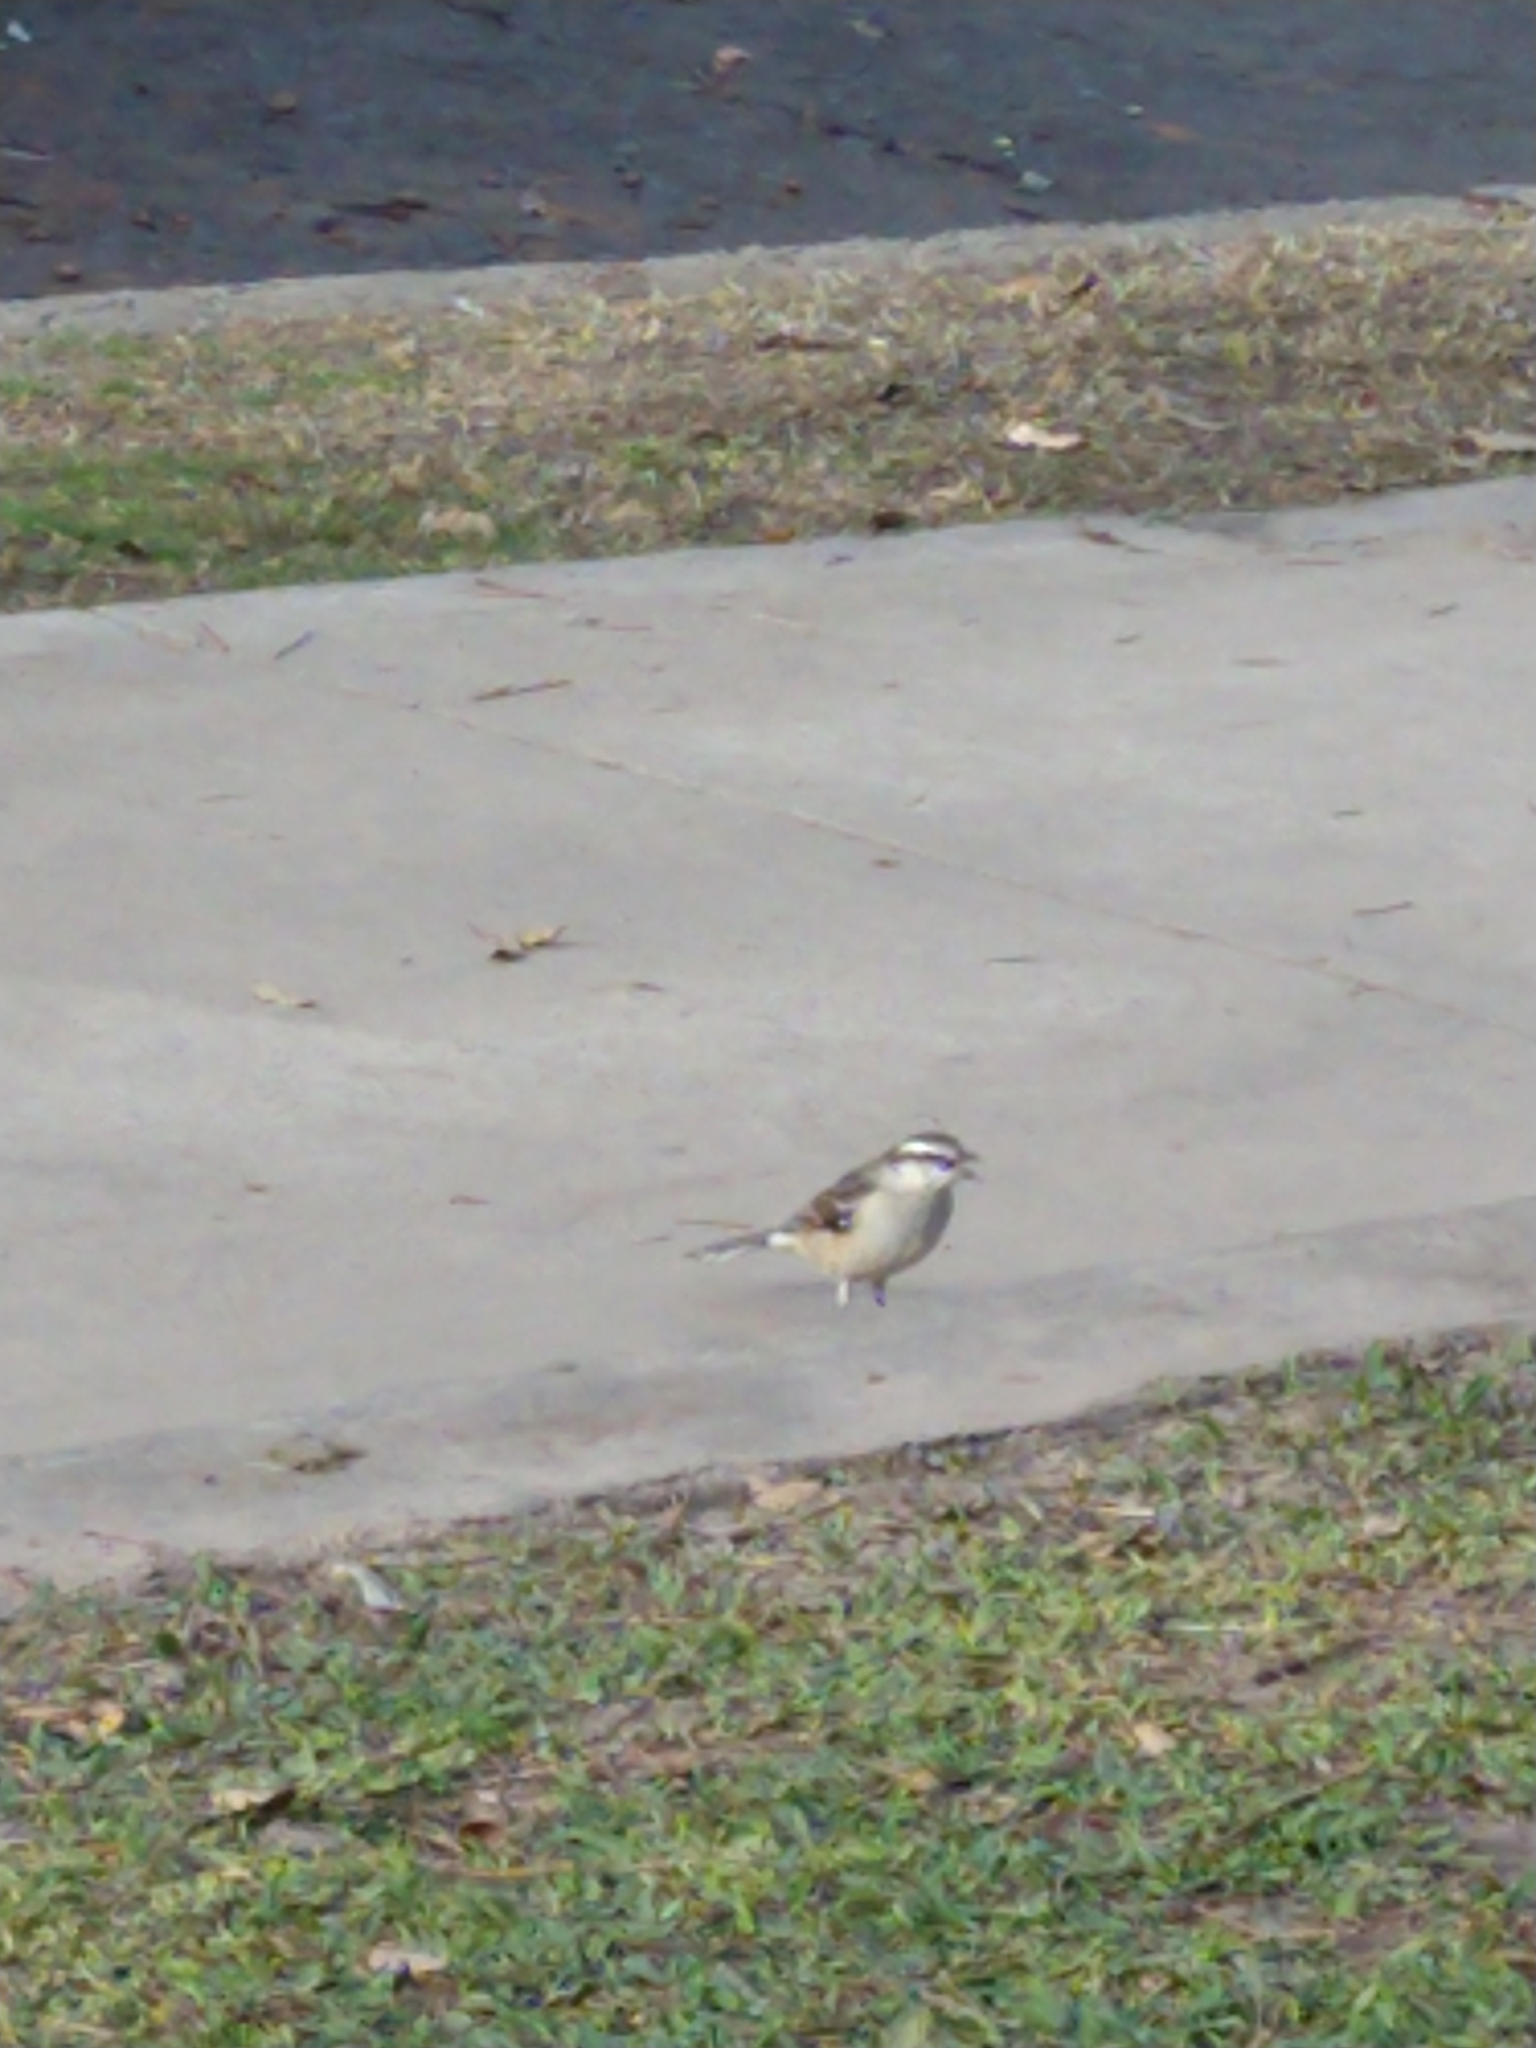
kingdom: Animalia
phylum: Chordata
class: Aves
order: Passeriformes
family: Mimidae
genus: Mimus
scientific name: Mimus saturninus
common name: Chalk-browed mockingbird
